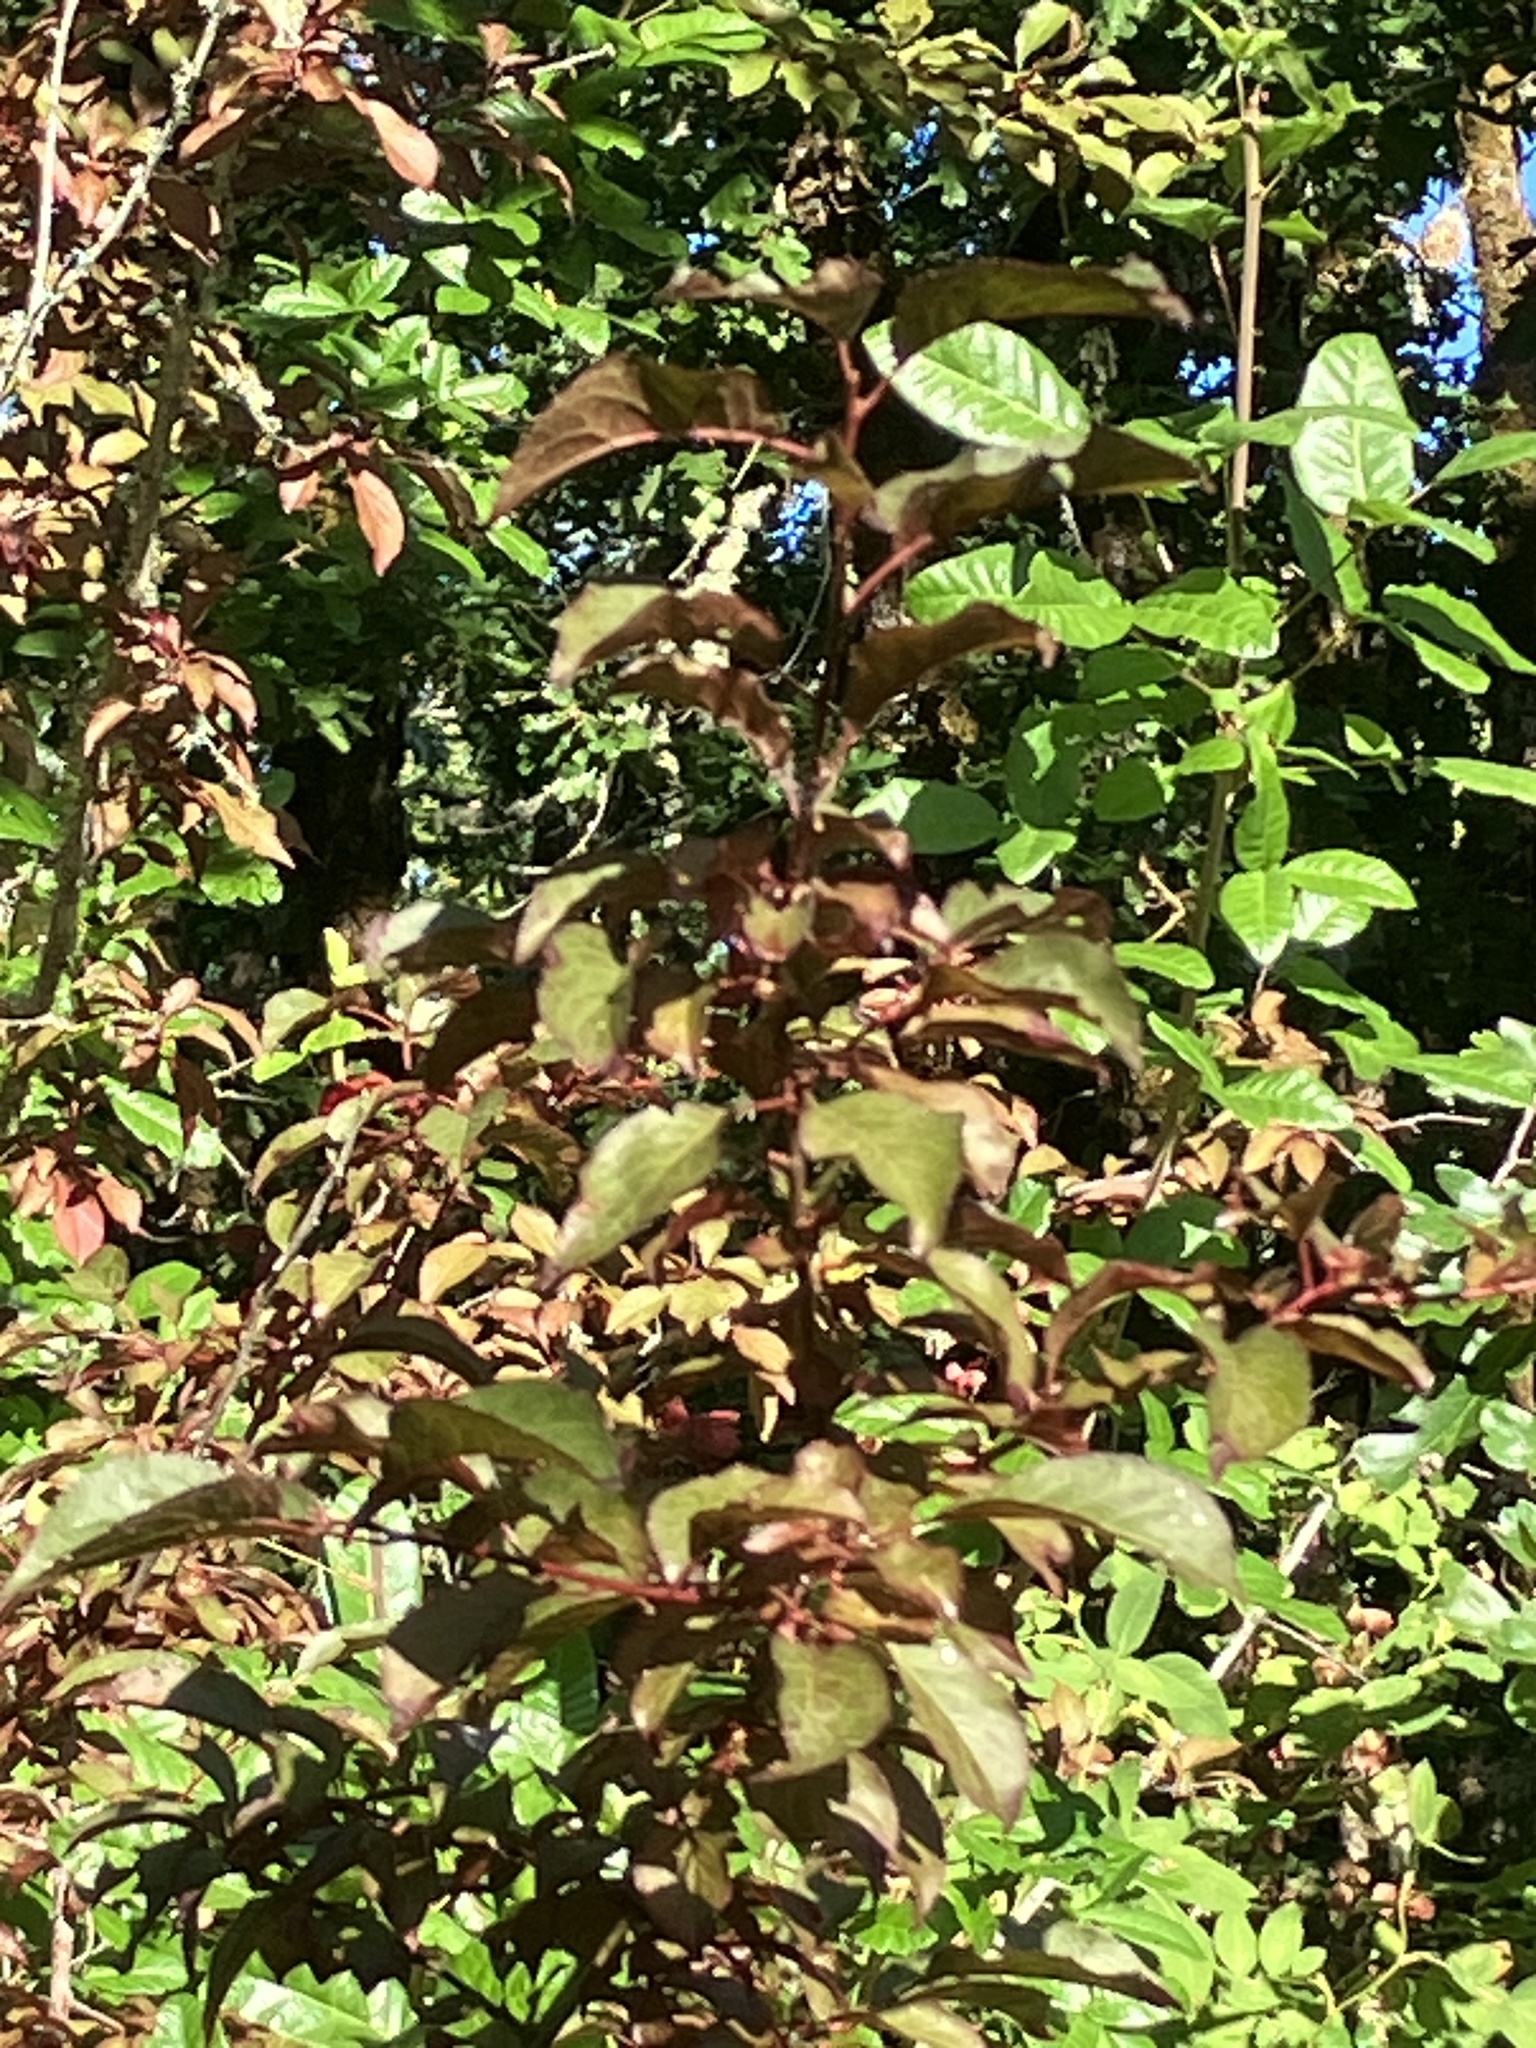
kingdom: Plantae
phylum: Tracheophyta
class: Magnoliopsida
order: Rosales
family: Rosaceae
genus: Prunus
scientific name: Prunus cerasifera
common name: Cherry plum
